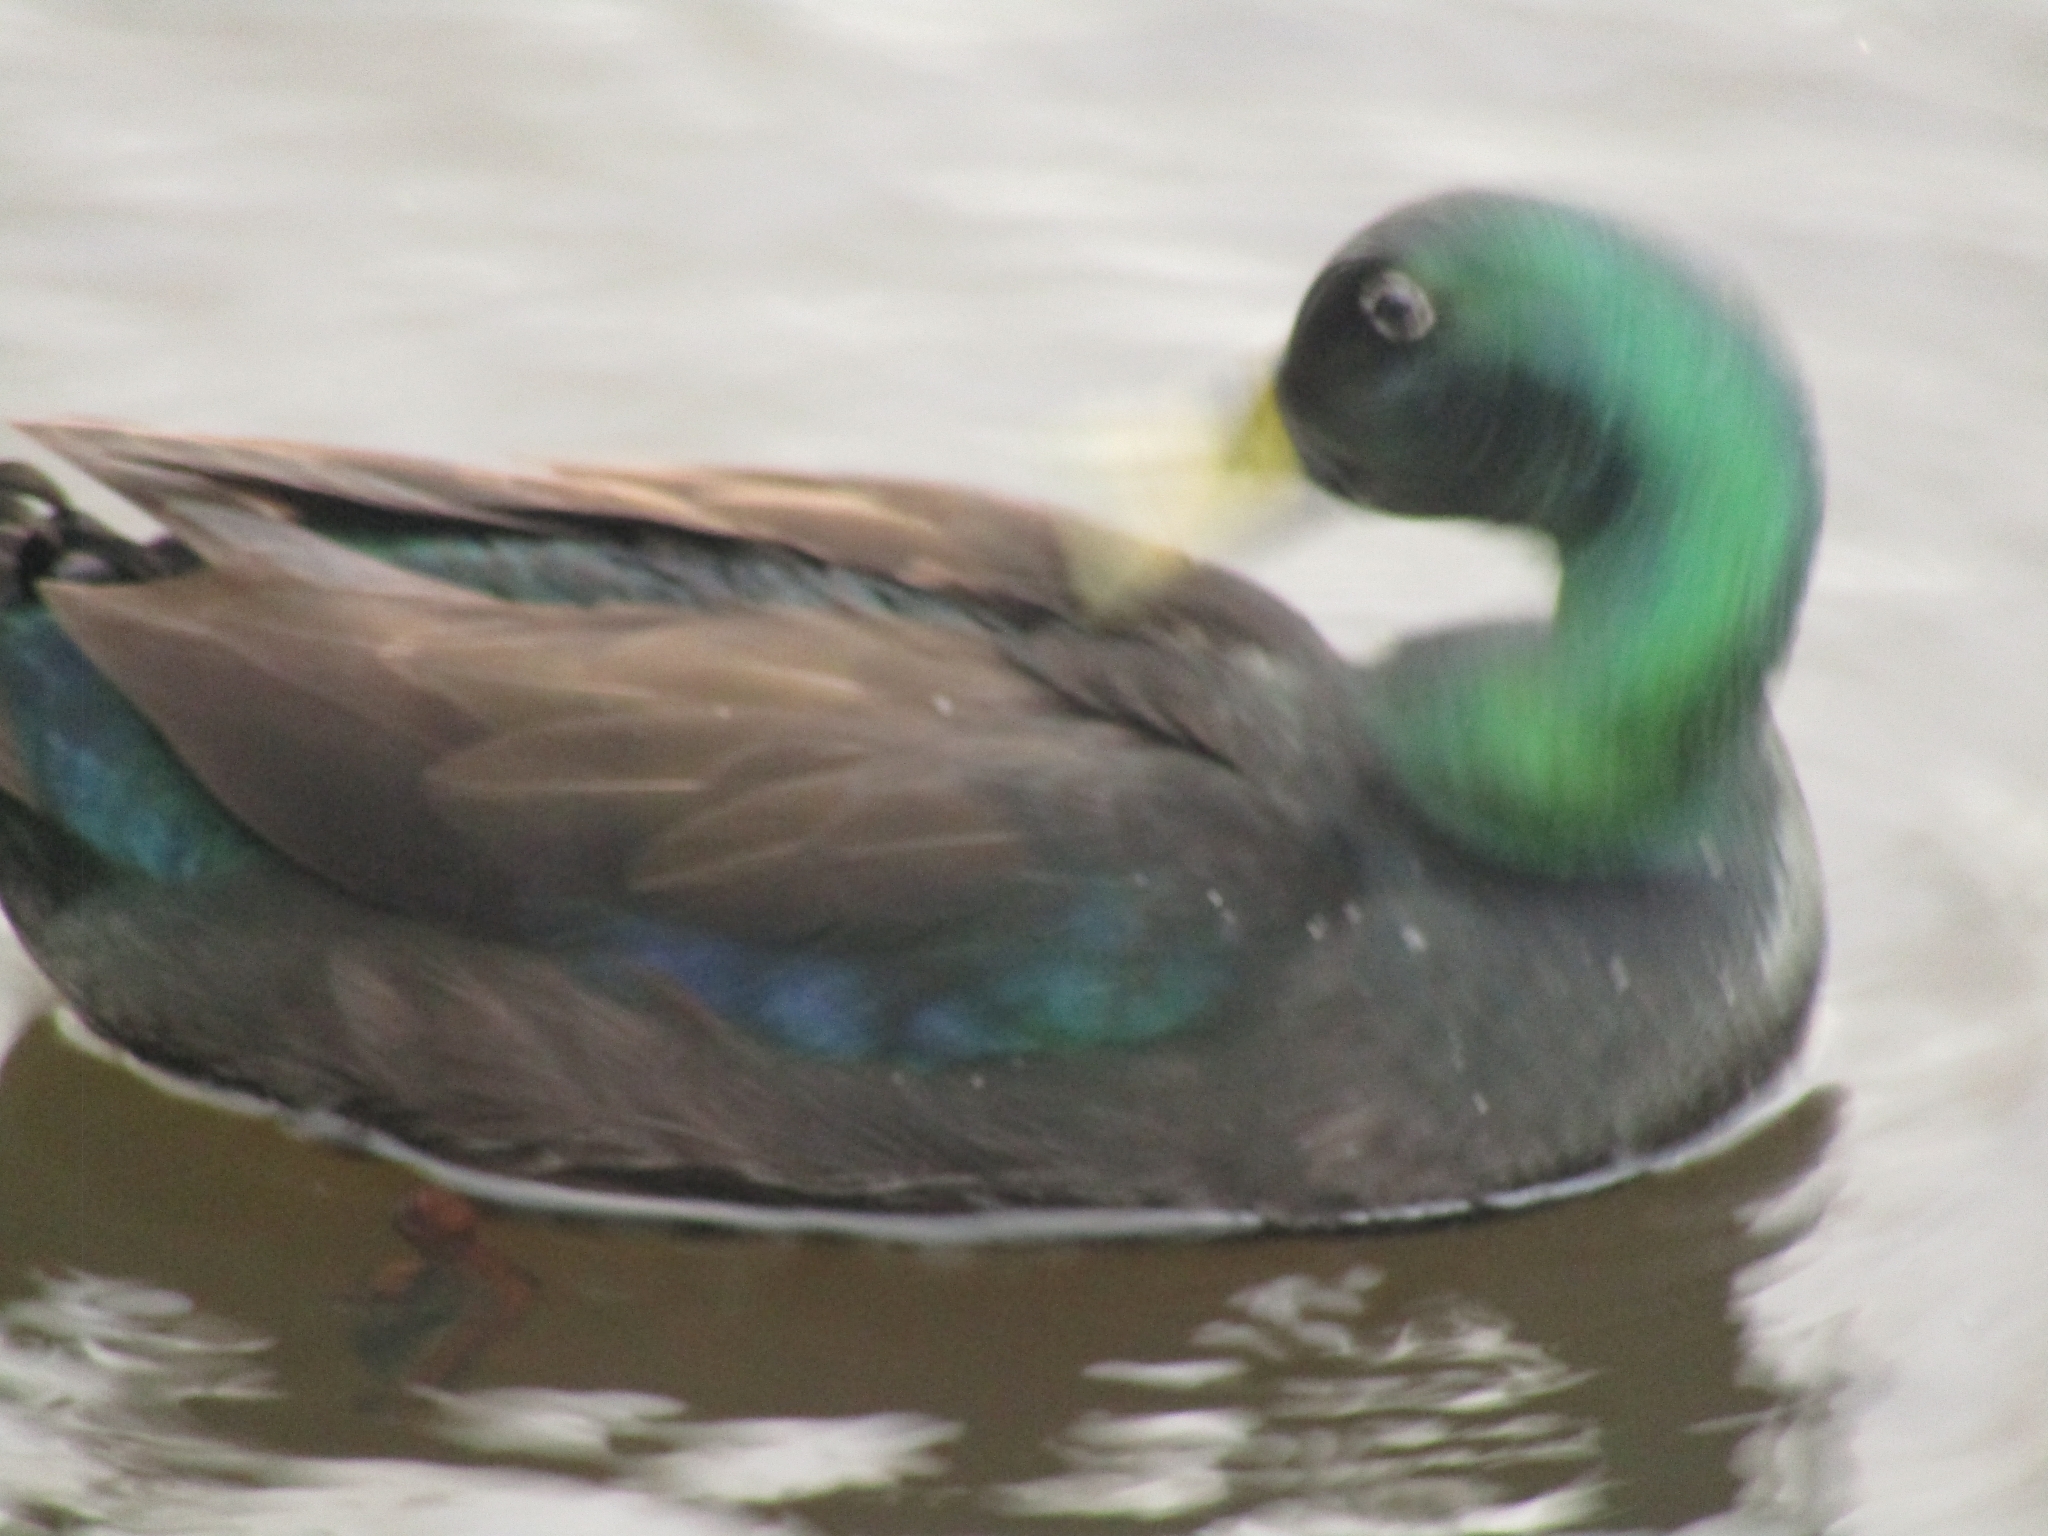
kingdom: Animalia
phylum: Chordata
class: Aves
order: Anseriformes
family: Anatidae
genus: Anas
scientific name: Anas platyrhynchos
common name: Mallard
